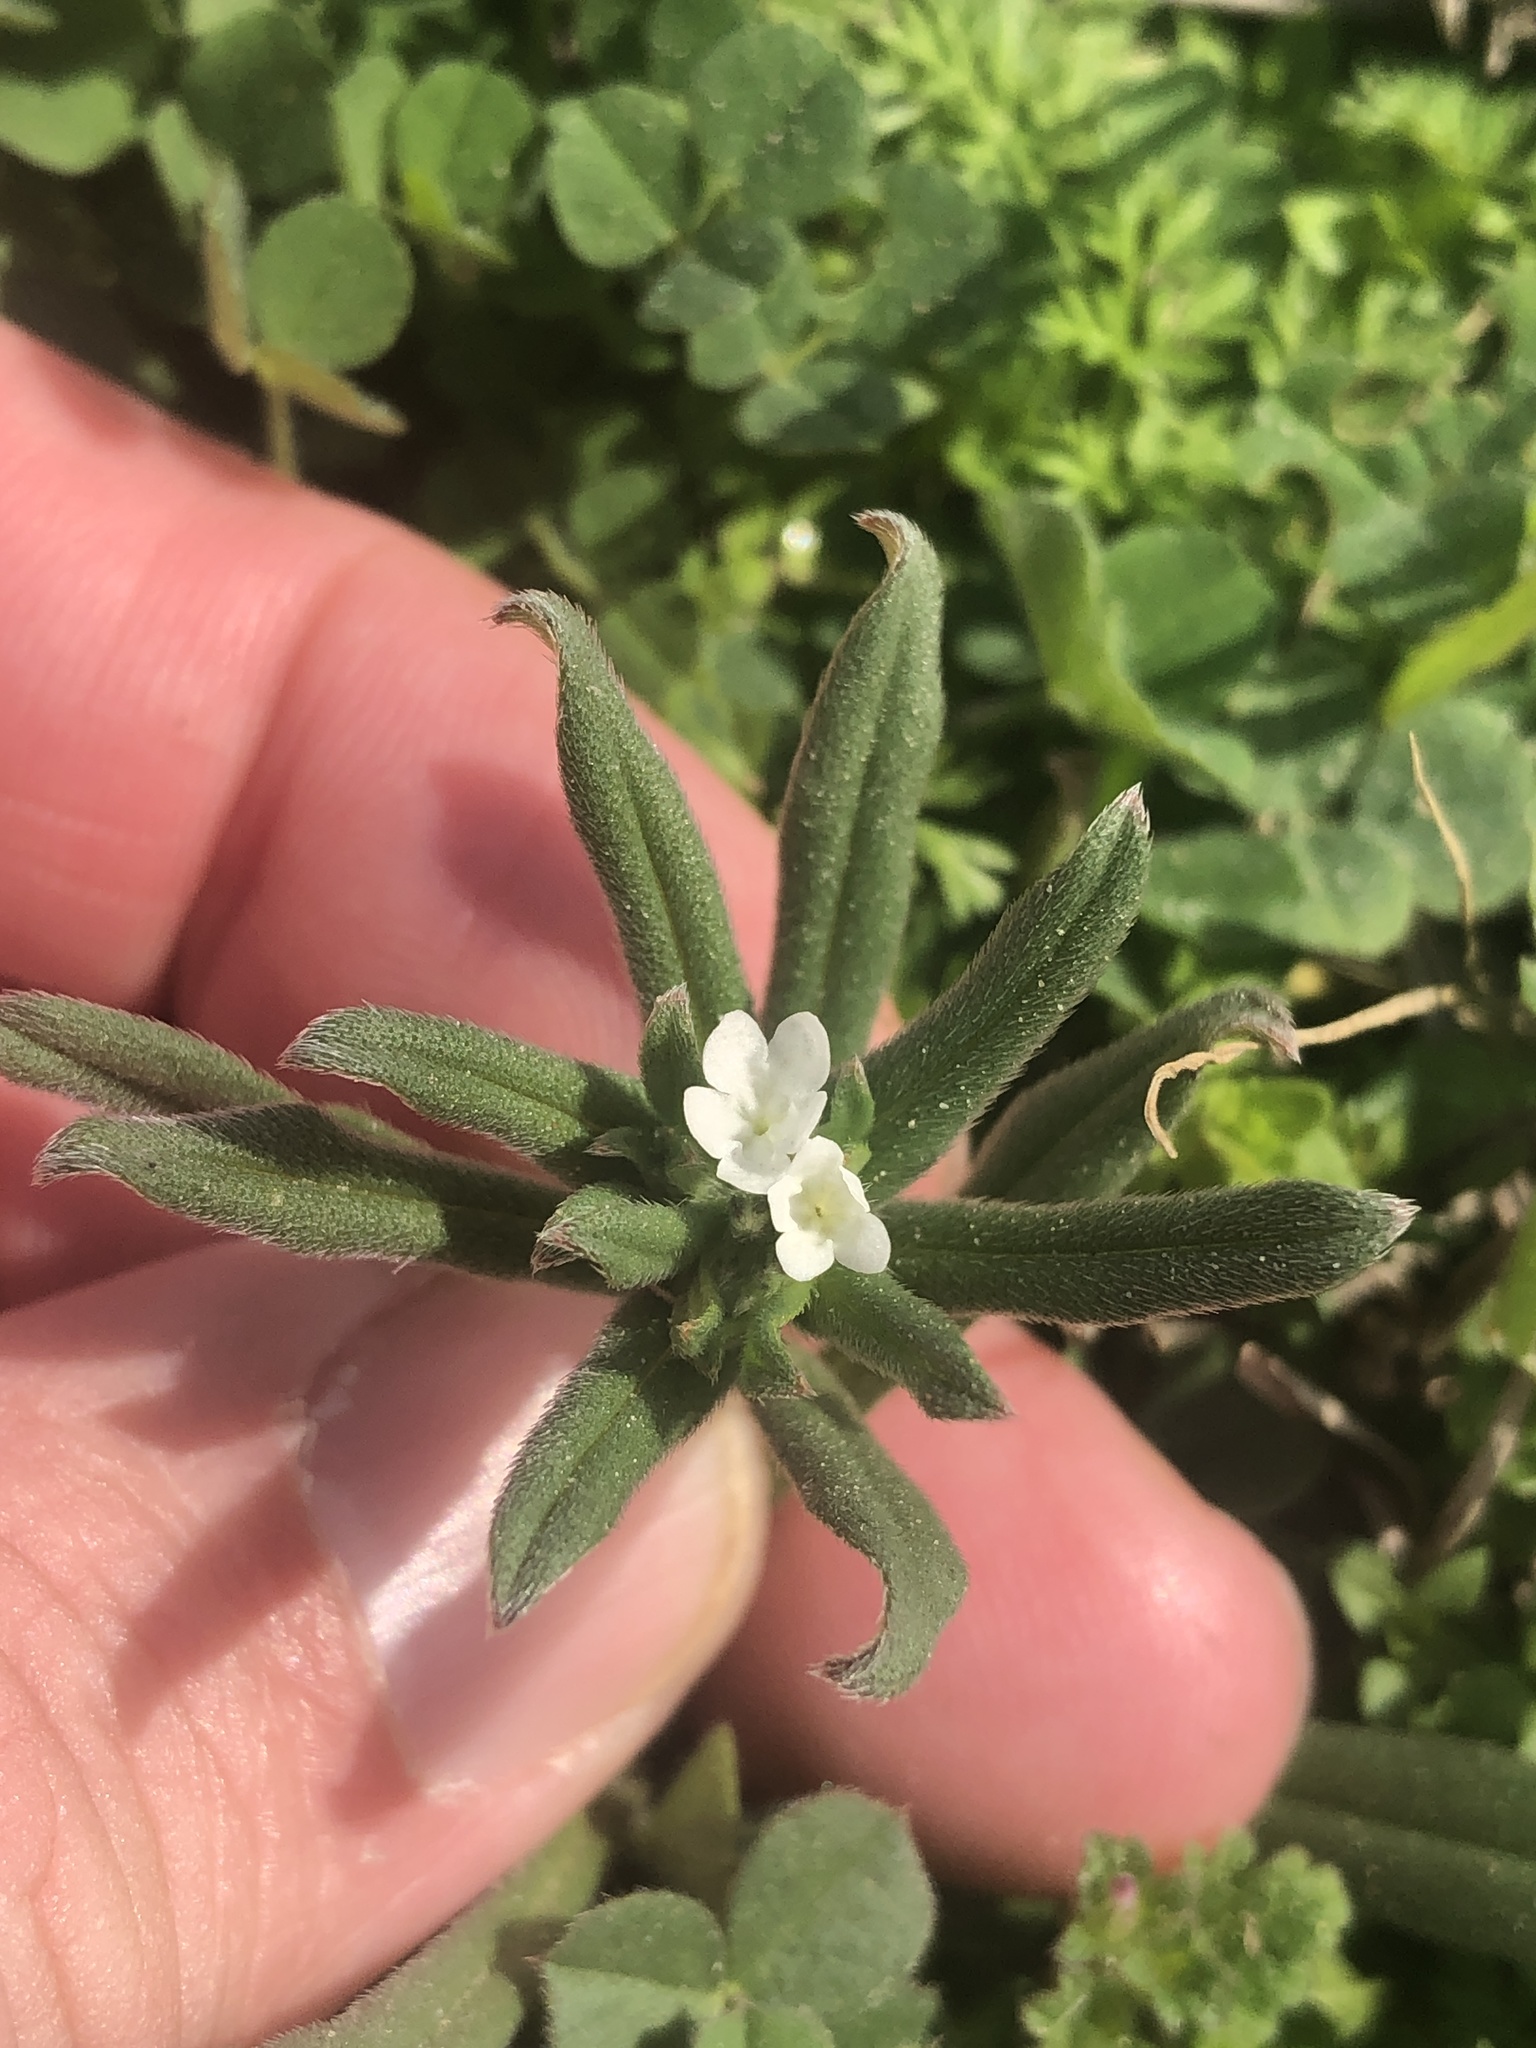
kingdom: Plantae
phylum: Tracheophyta
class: Magnoliopsida
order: Boraginales
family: Boraginaceae
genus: Buglossoides
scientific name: Buglossoides arvensis
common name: Corn gromwell
